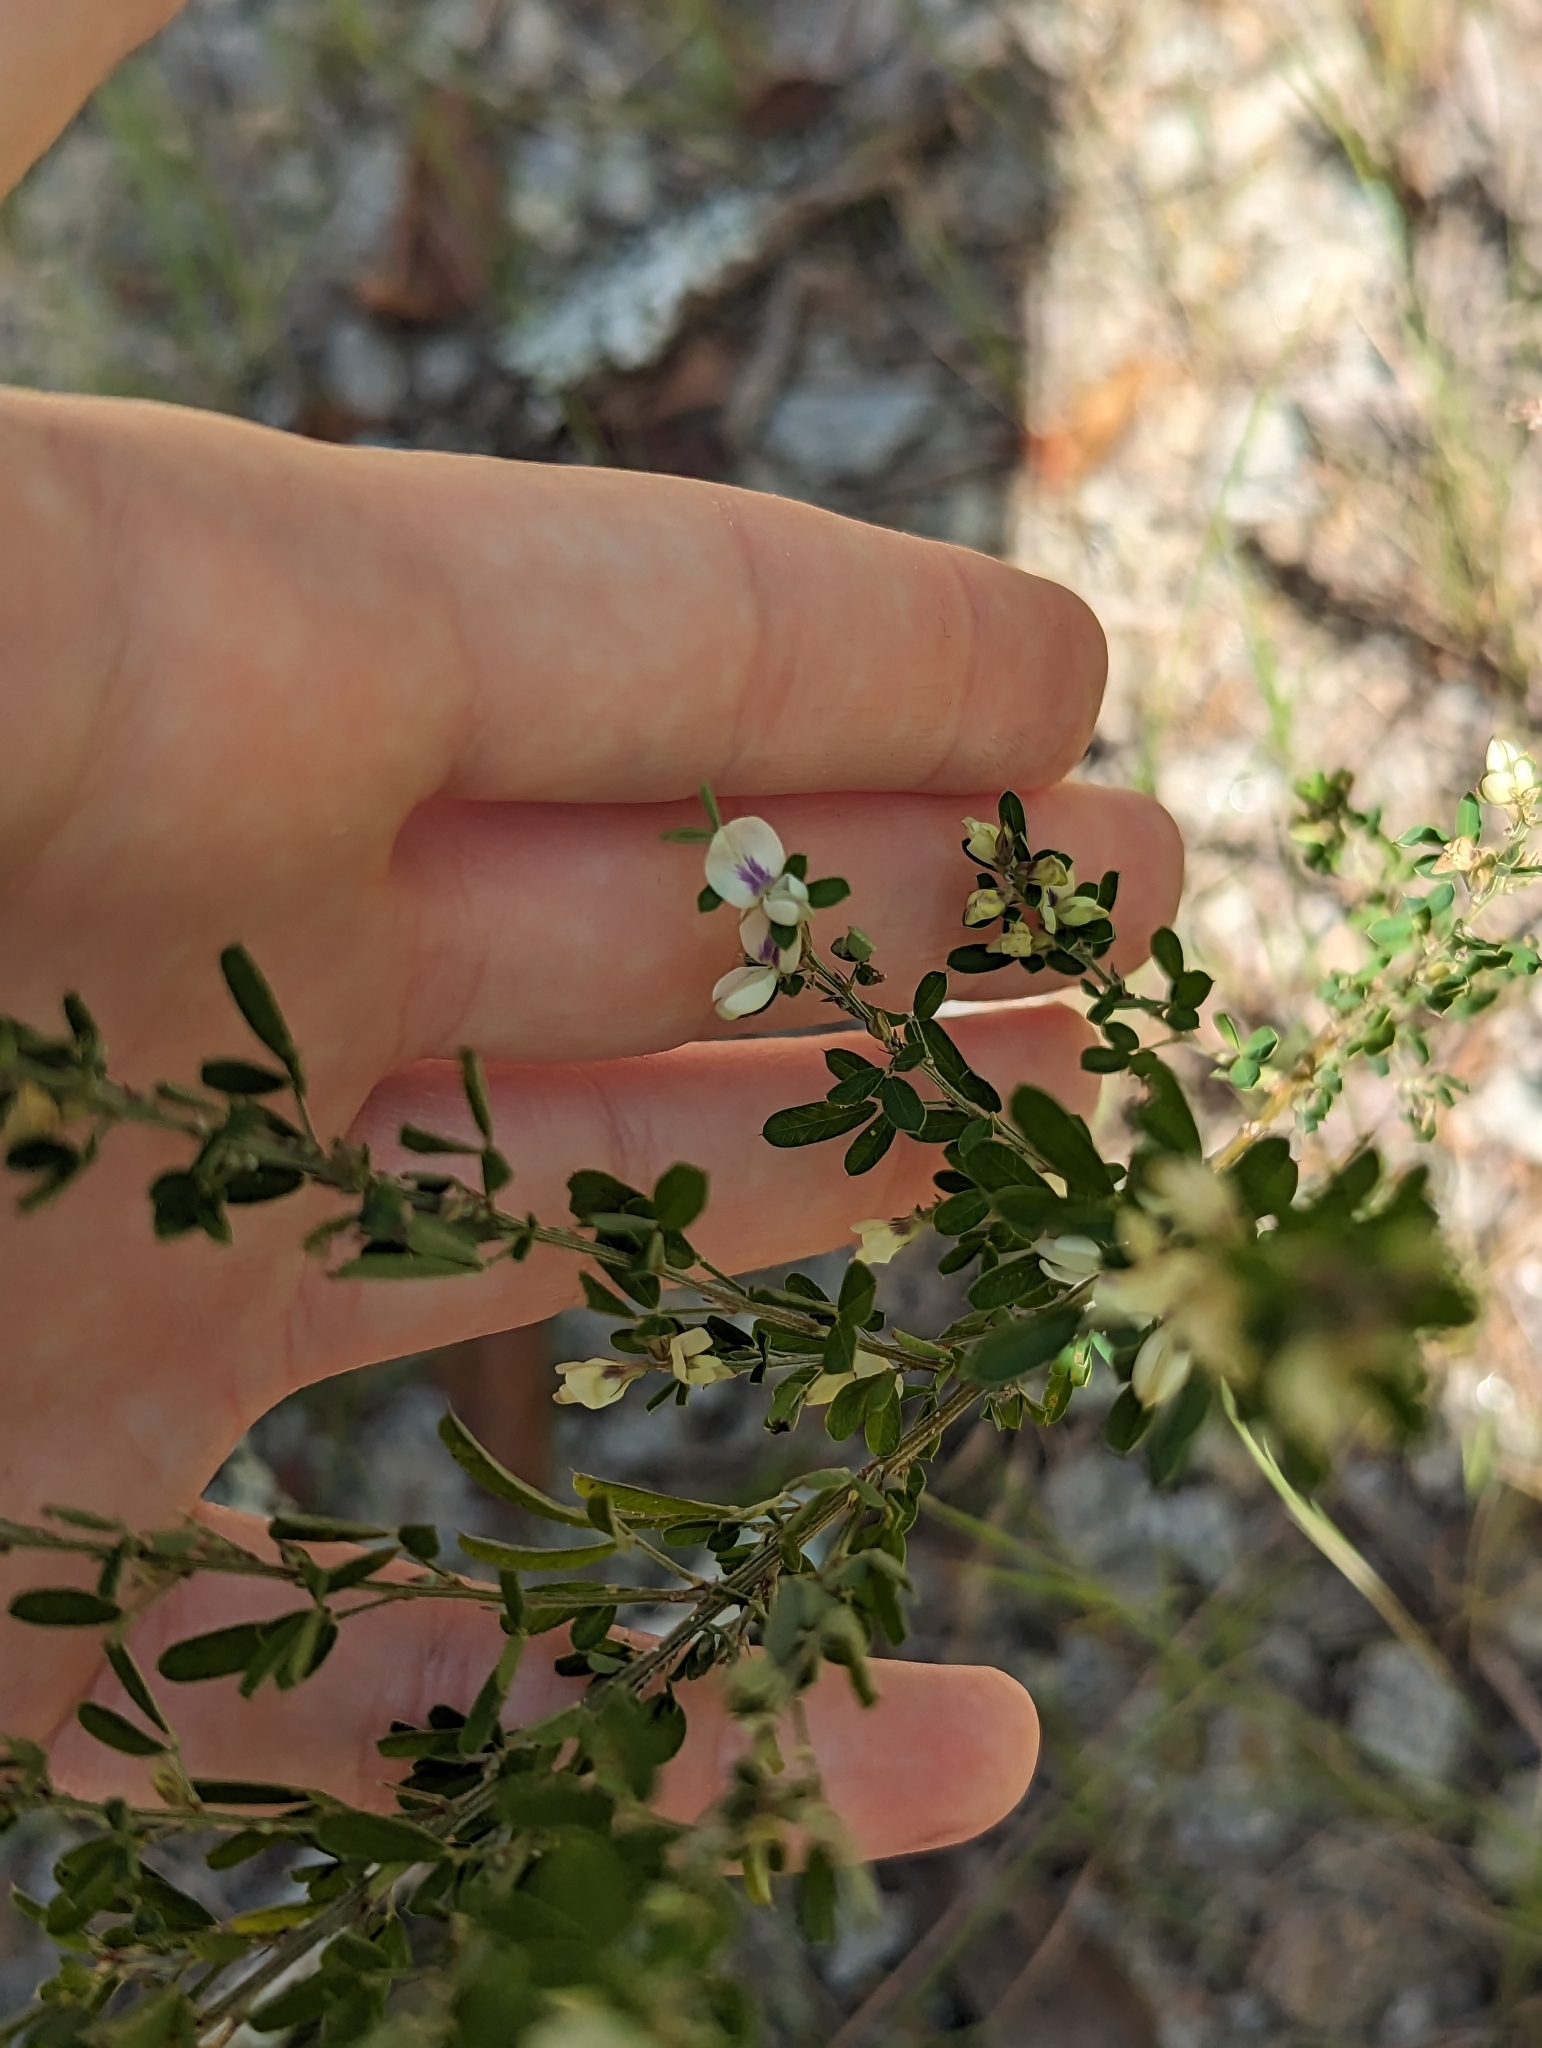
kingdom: Plantae
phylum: Tracheophyta
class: Magnoliopsida
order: Fabales
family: Fabaceae
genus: Lespedeza
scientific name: Lespedeza cuneata
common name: Chinese bush-clover
